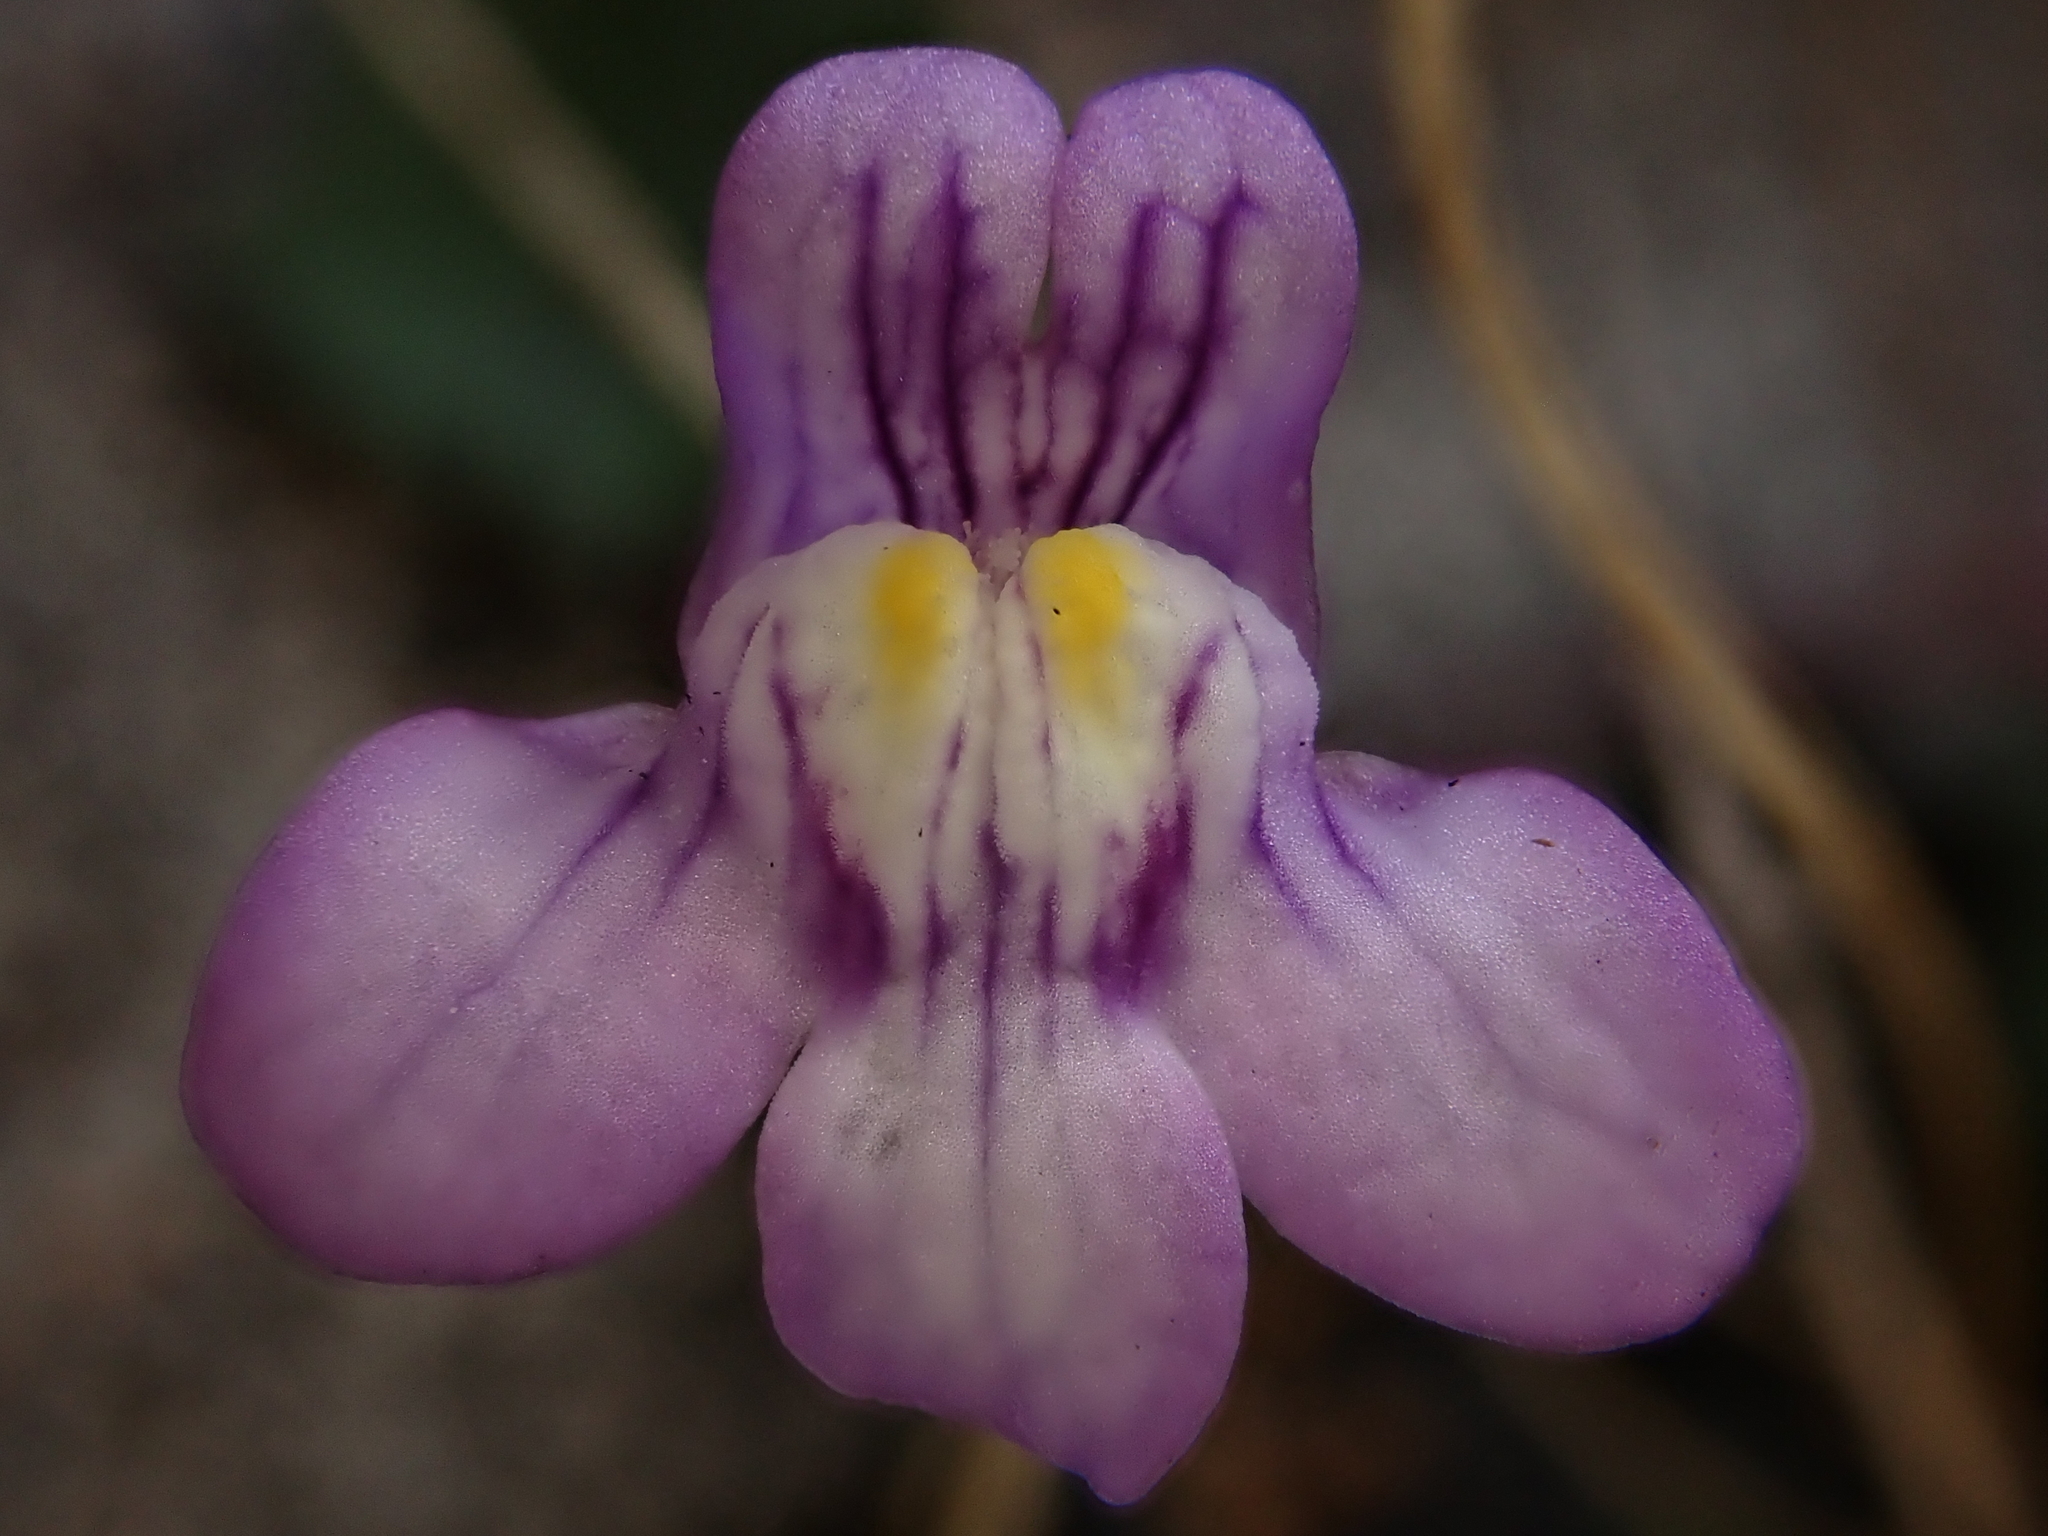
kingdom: Plantae
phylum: Tracheophyta
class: Magnoliopsida
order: Lamiales
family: Plantaginaceae
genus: Cymbalaria
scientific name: Cymbalaria muralis
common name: Ivy-leaved toadflax
